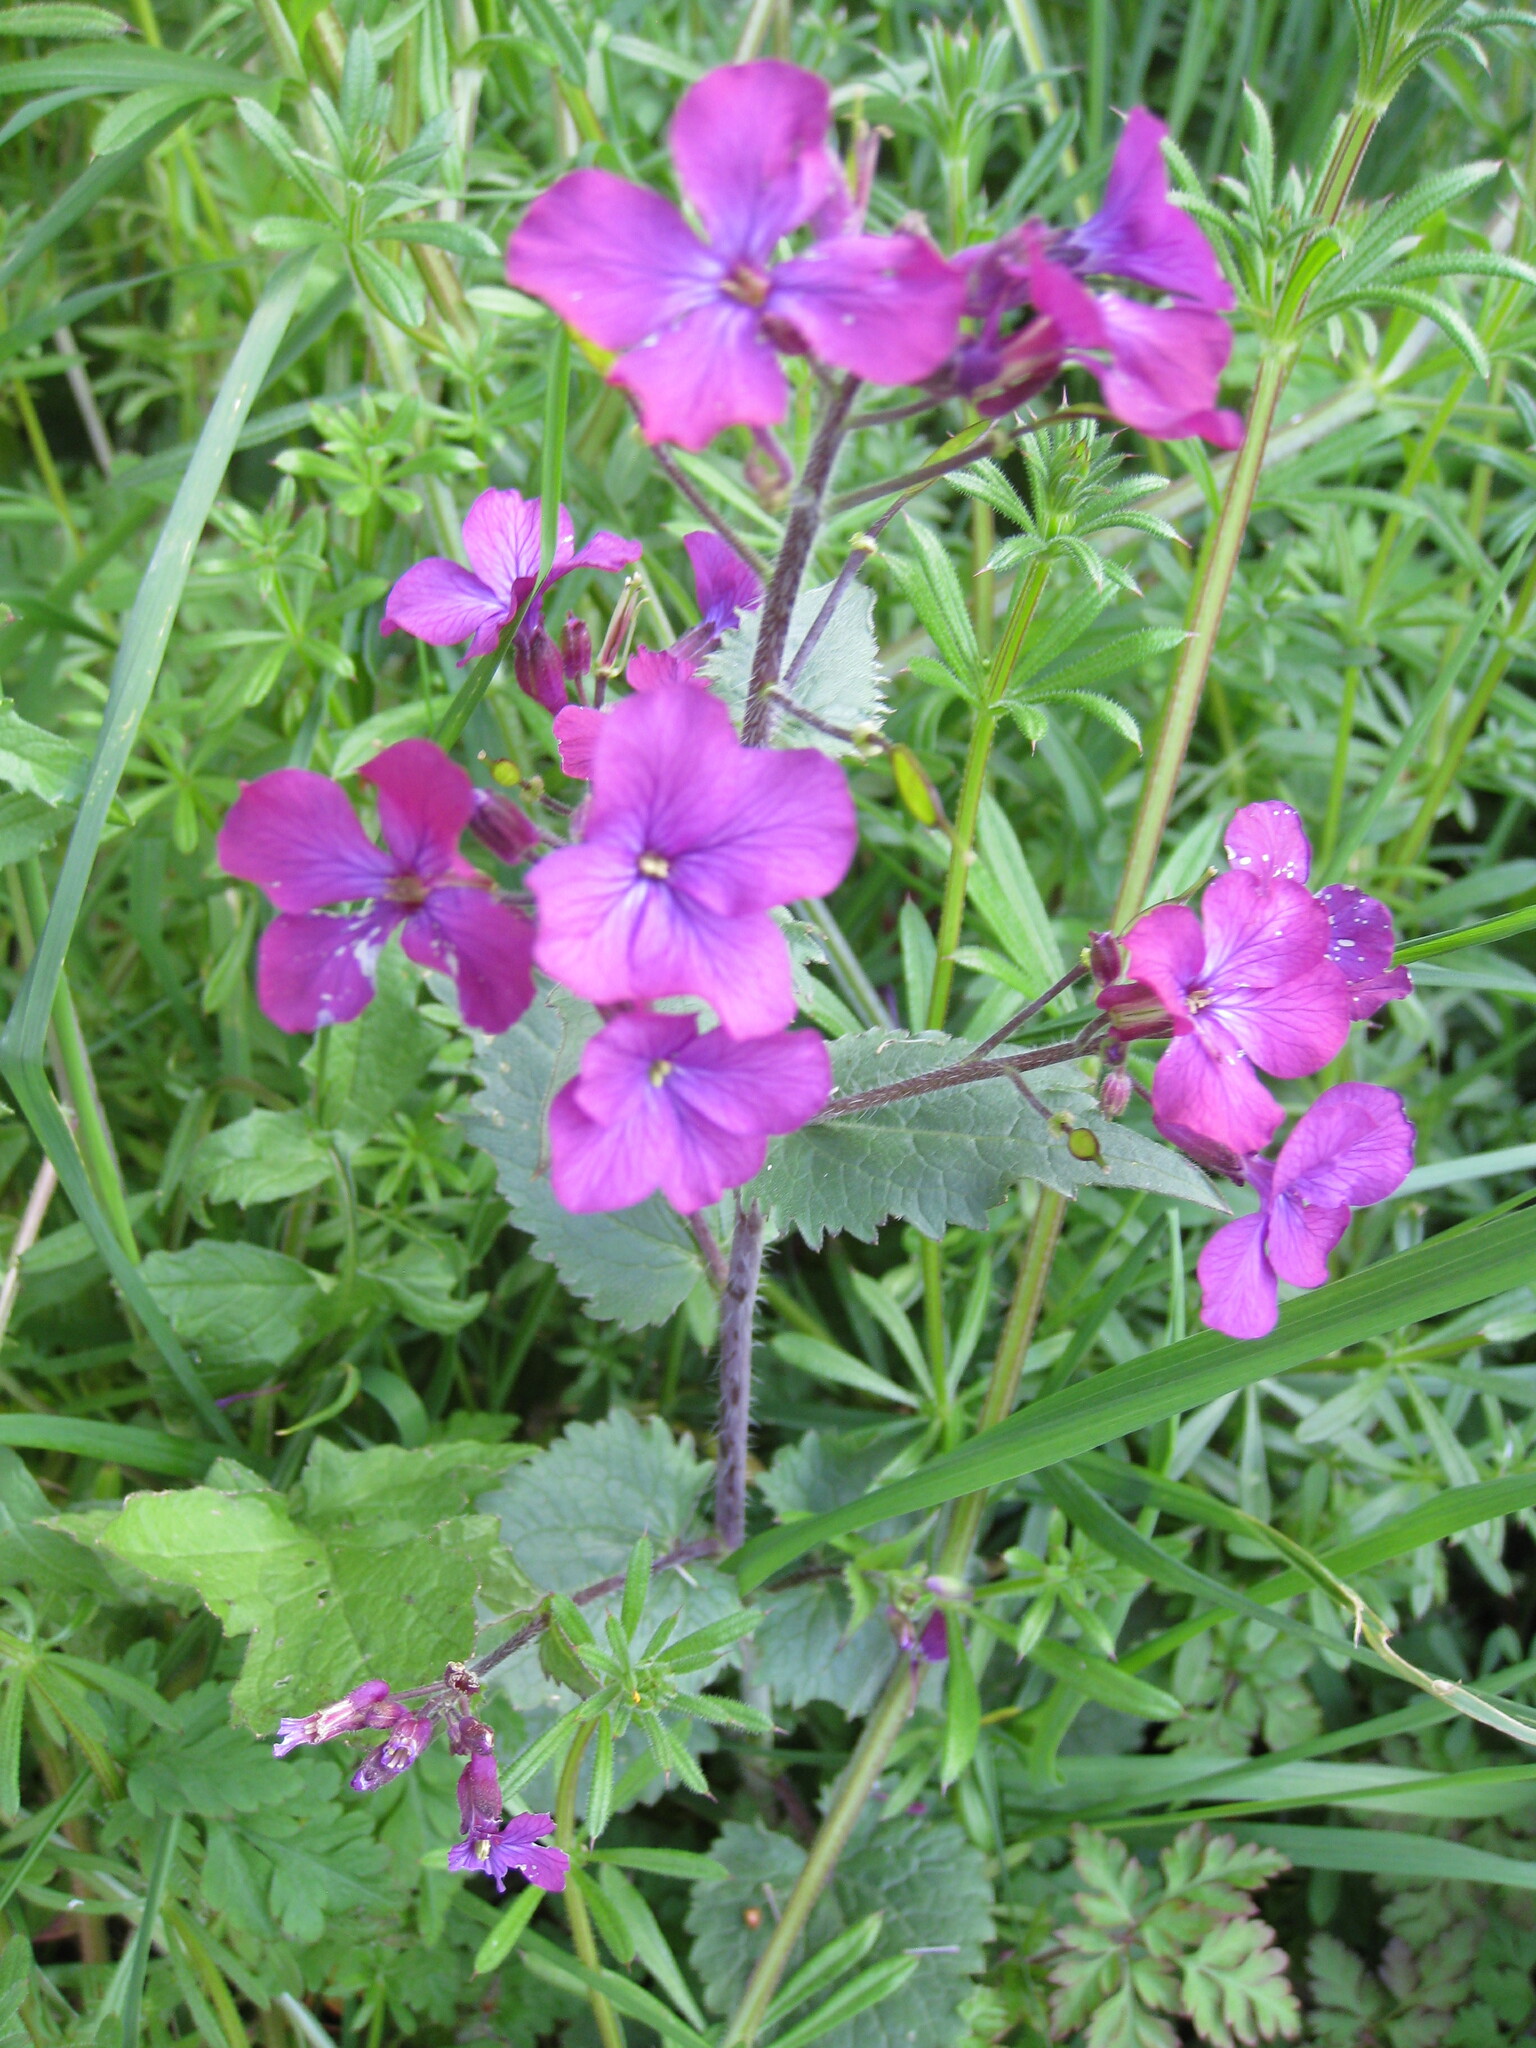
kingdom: Plantae
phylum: Tracheophyta
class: Magnoliopsida
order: Brassicales
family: Brassicaceae
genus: Lunaria
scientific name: Lunaria annua
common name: Honesty
